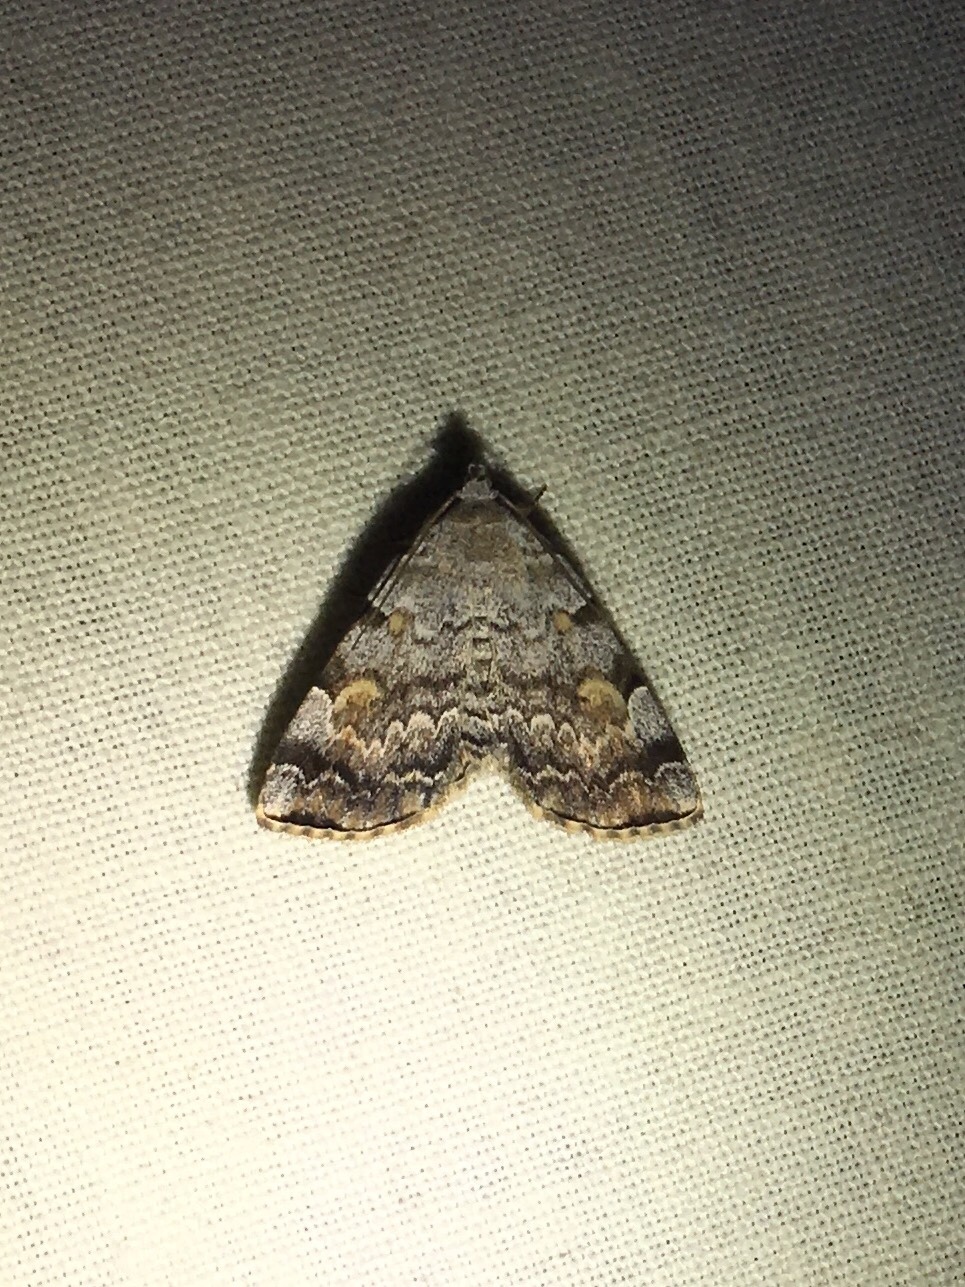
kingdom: Animalia
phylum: Arthropoda
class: Insecta
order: Lepidoptera
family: Erebidae
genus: Idia
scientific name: Idia americalis
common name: American idia moth
